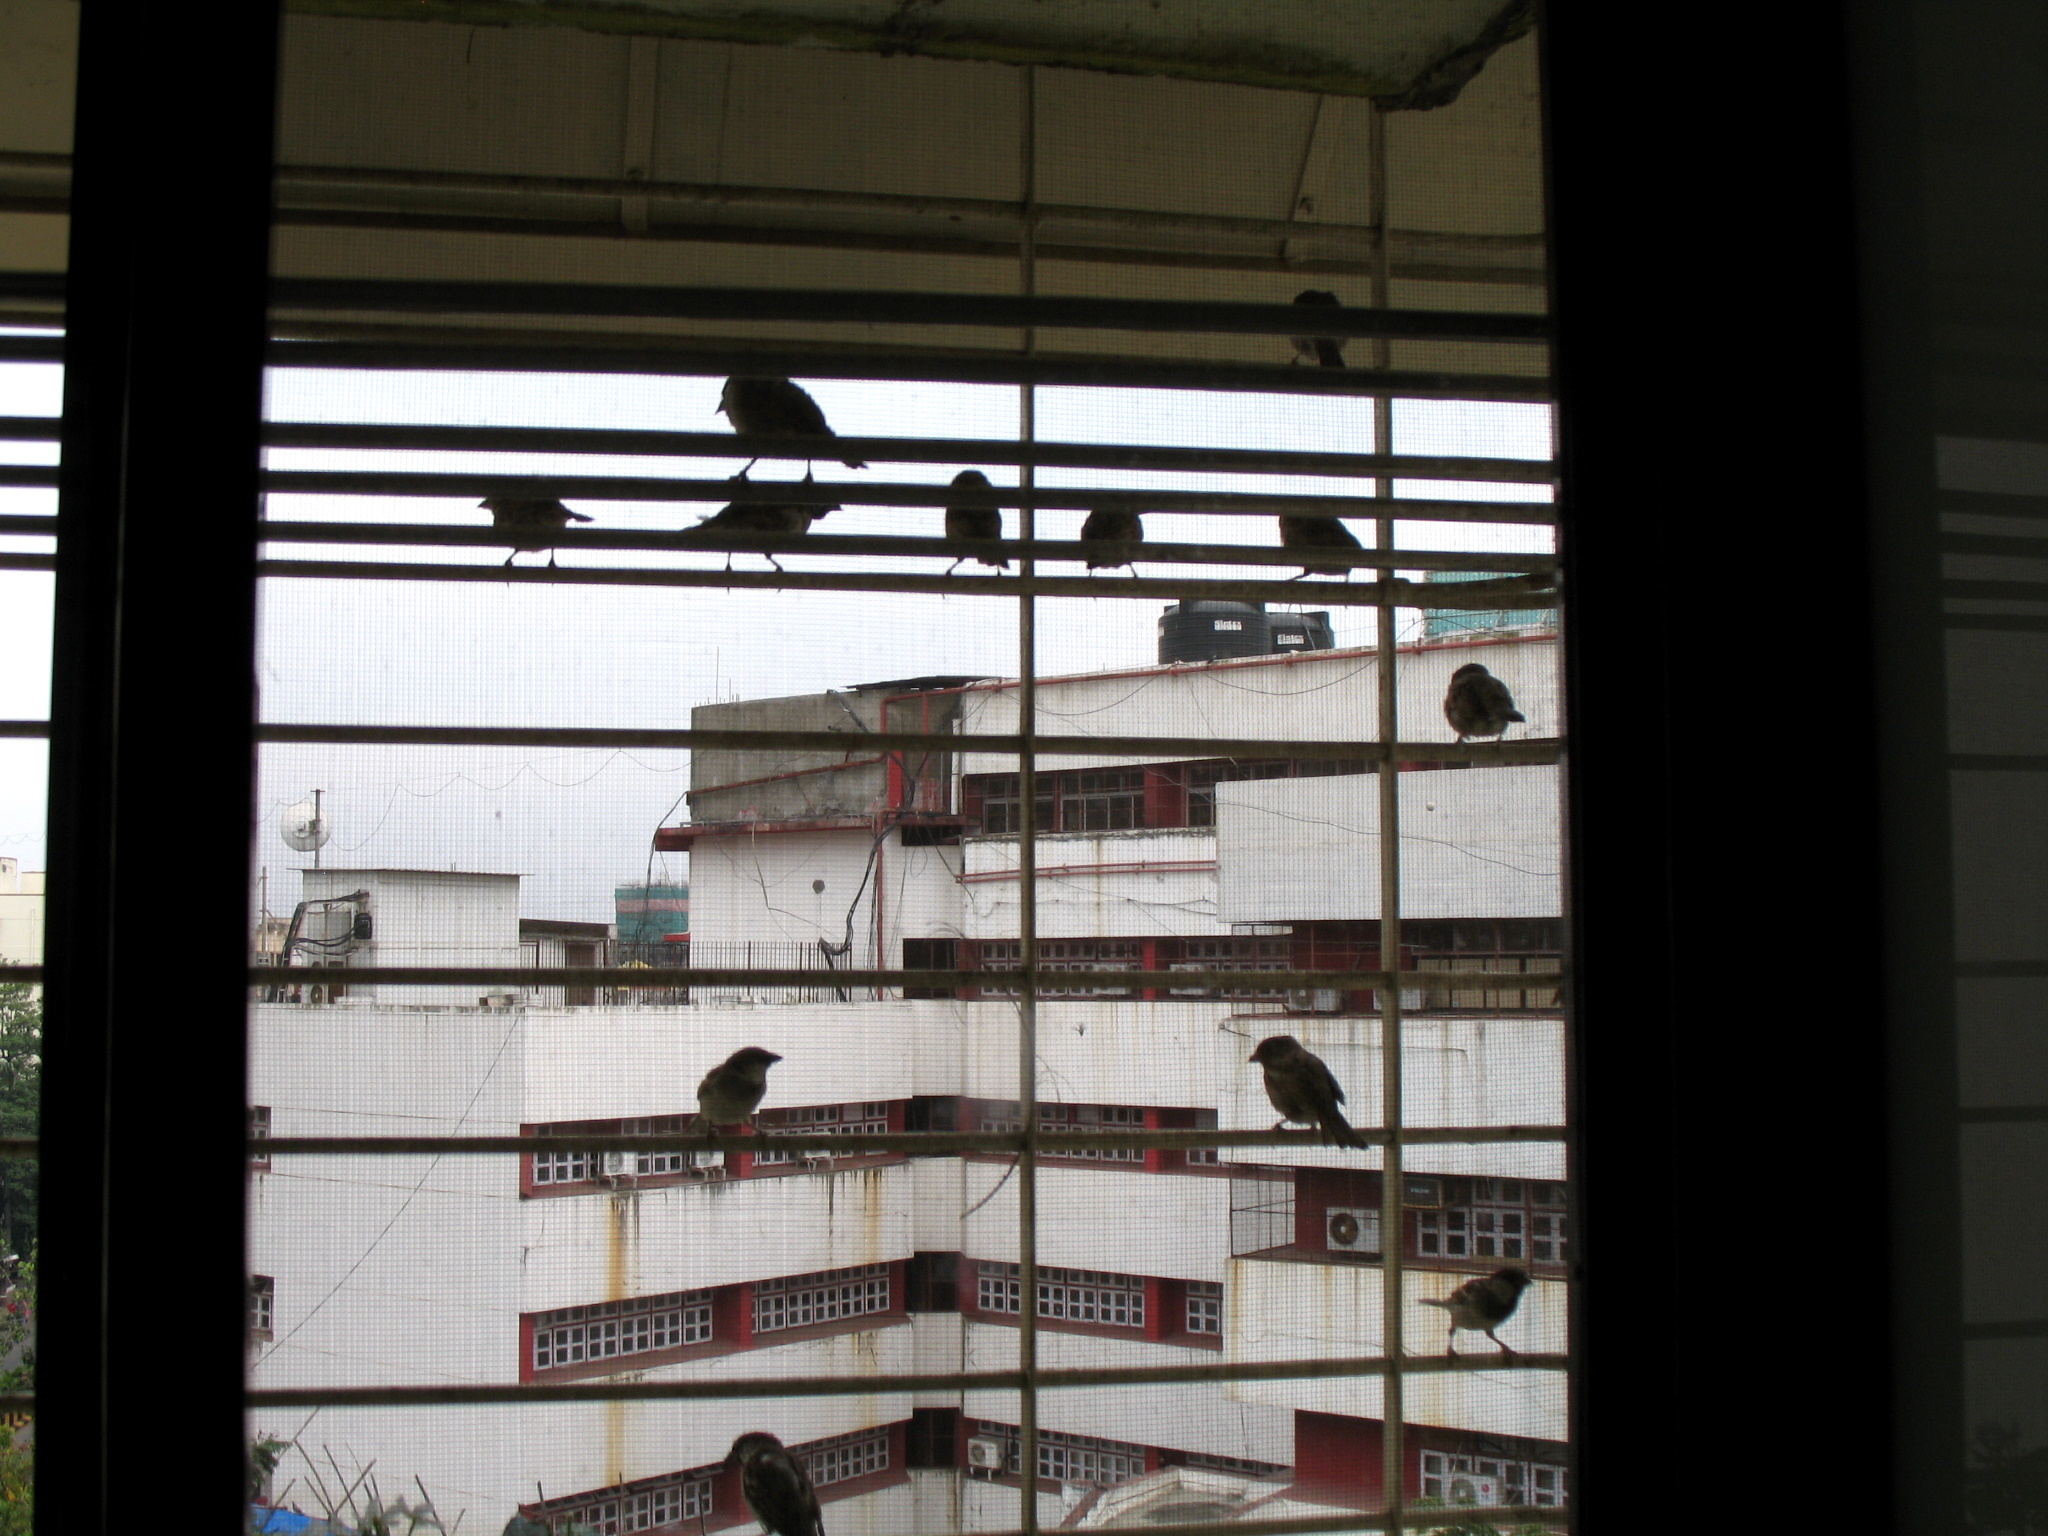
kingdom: Animalia
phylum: Chordata
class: Aves
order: Passeriformes
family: Passeridae
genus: Passer
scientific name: Passer domesticus
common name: House sparrow
